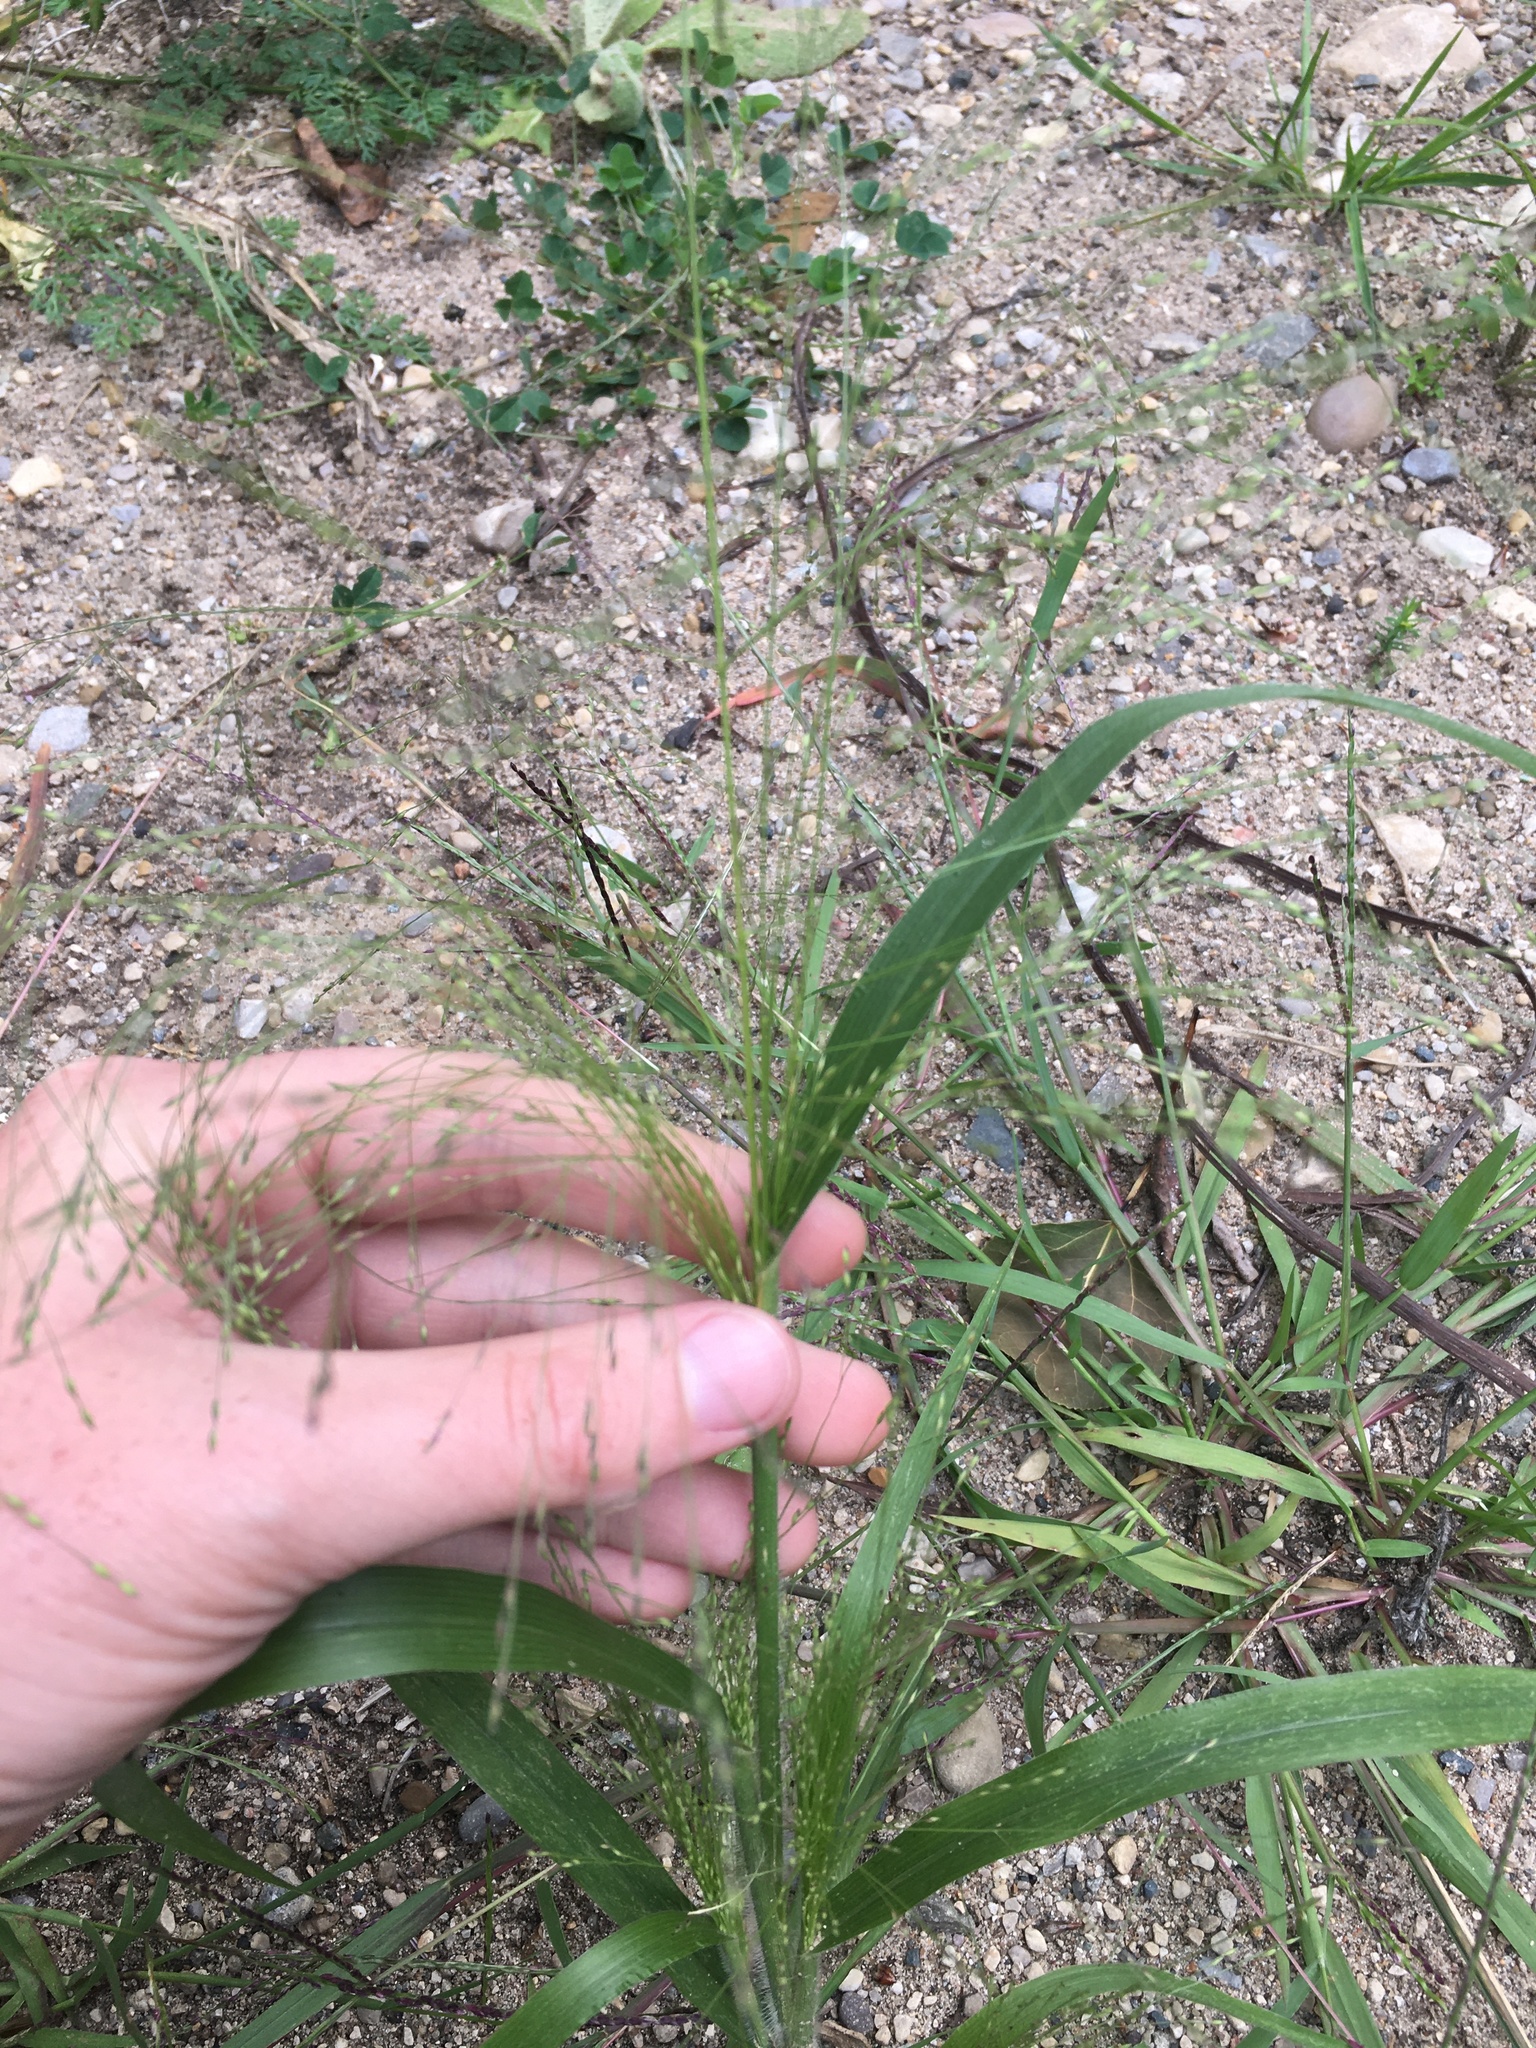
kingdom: Plantae
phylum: Tracheophyta
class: Liliopsida
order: Poales
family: Poaceae
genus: Panicum
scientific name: Panicum capillare
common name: Witch-grass
